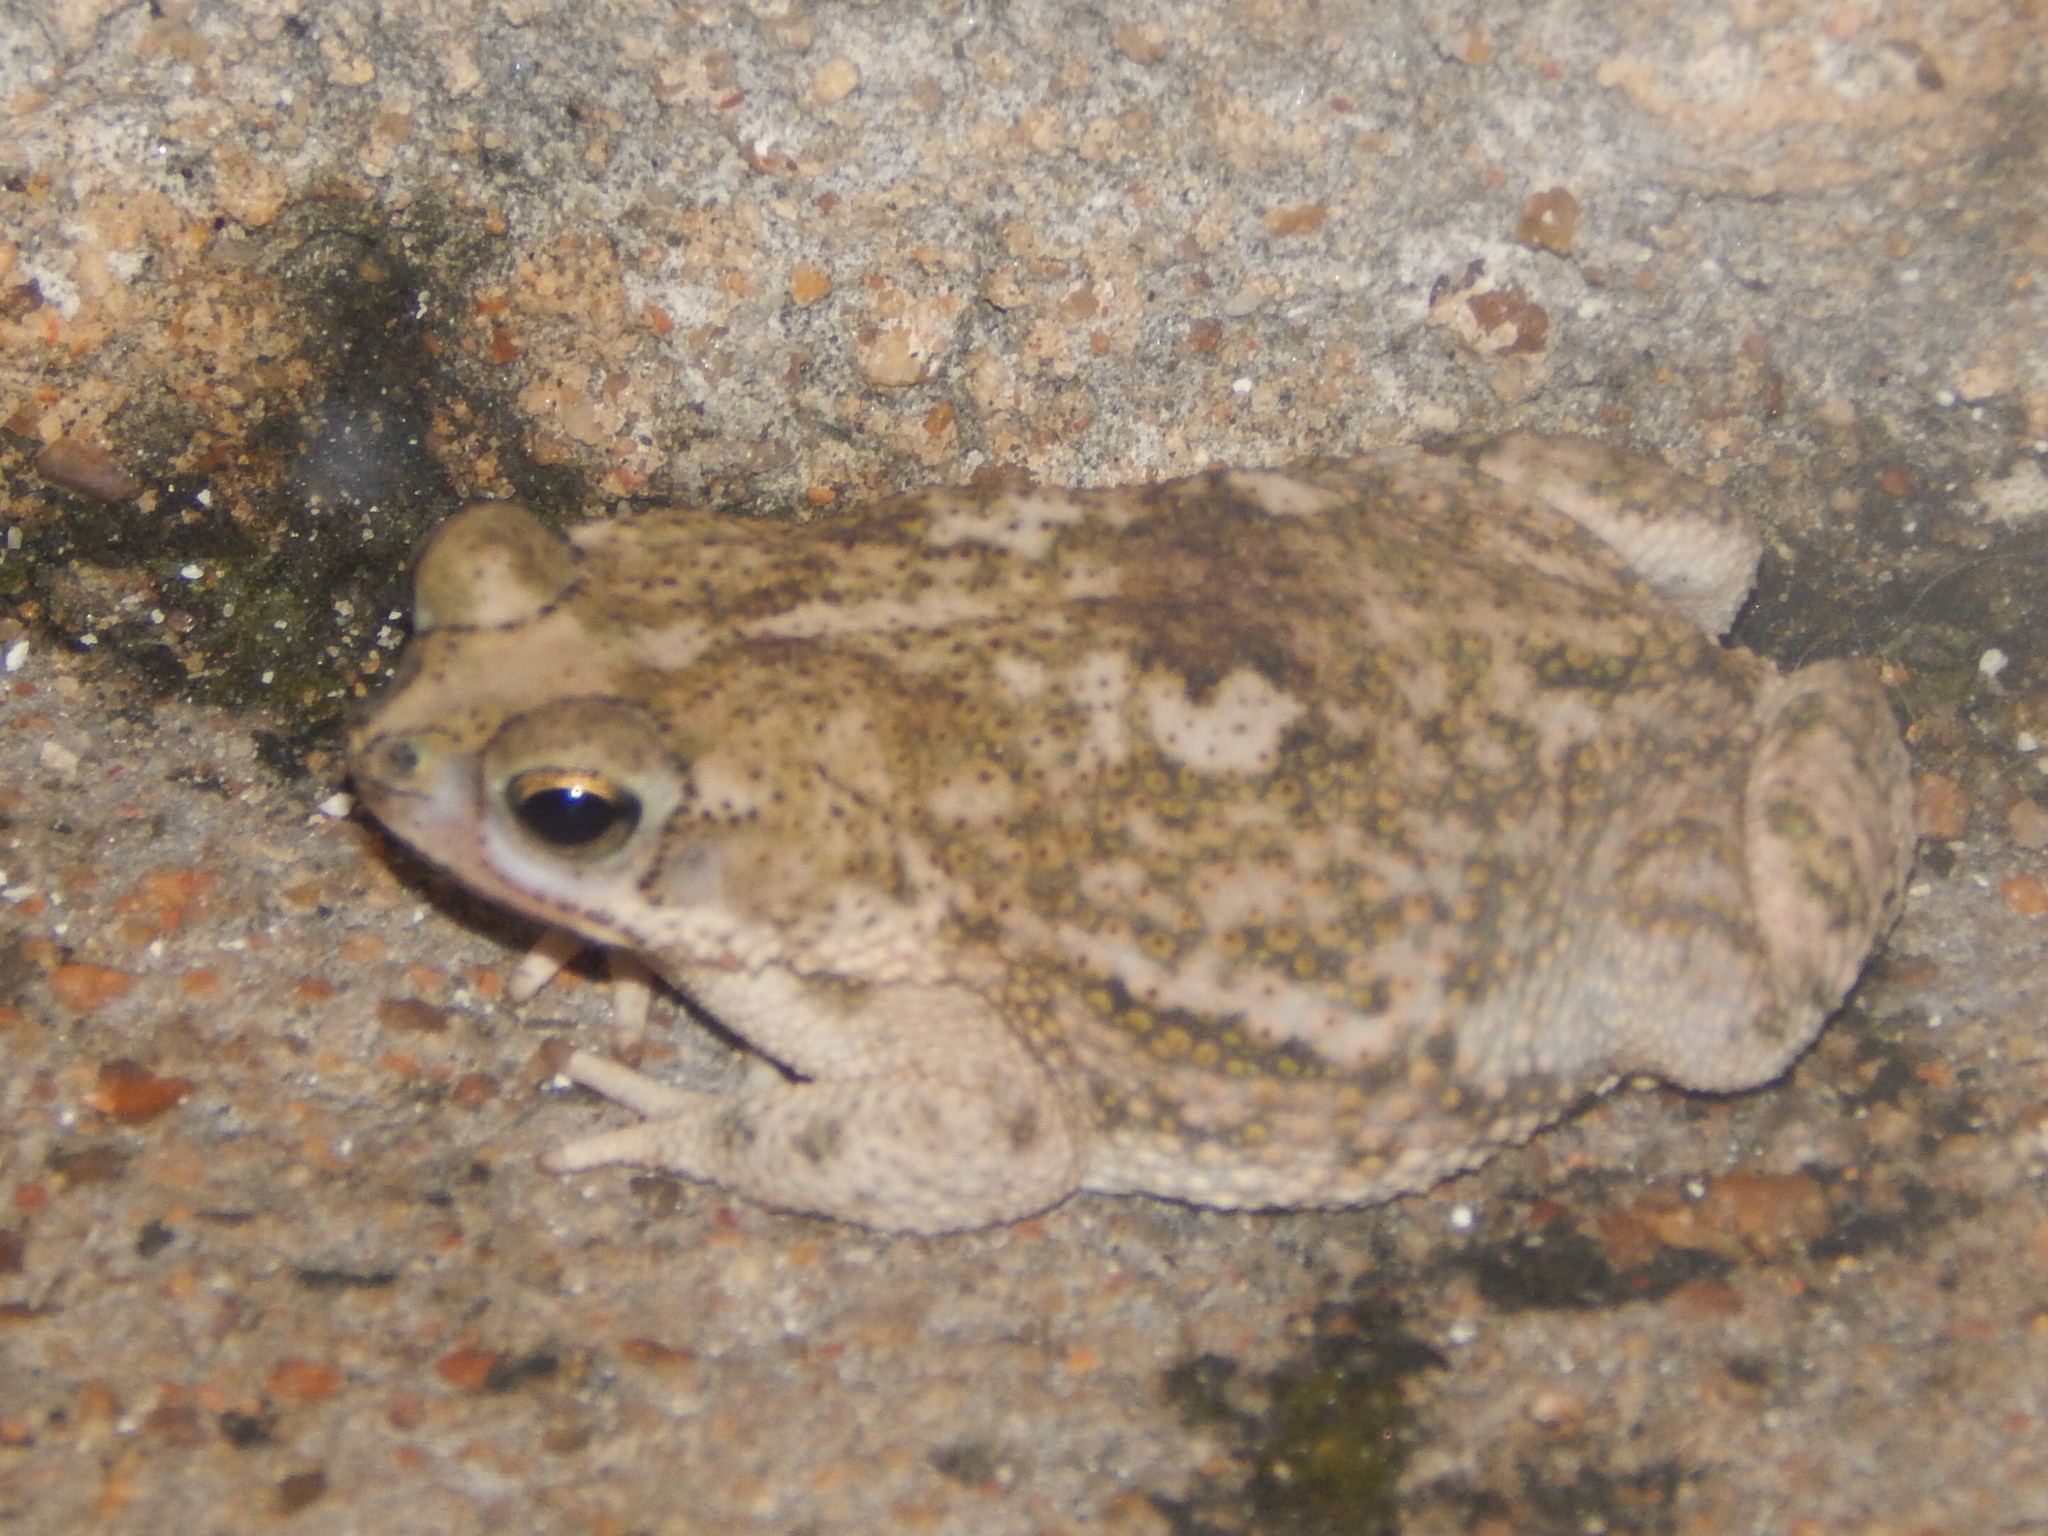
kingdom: Animalia
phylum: Chordata
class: Amphibia
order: Anura
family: Bufonidae
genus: Rhinella
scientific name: Rhinella granulosa
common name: Common lesser toad
